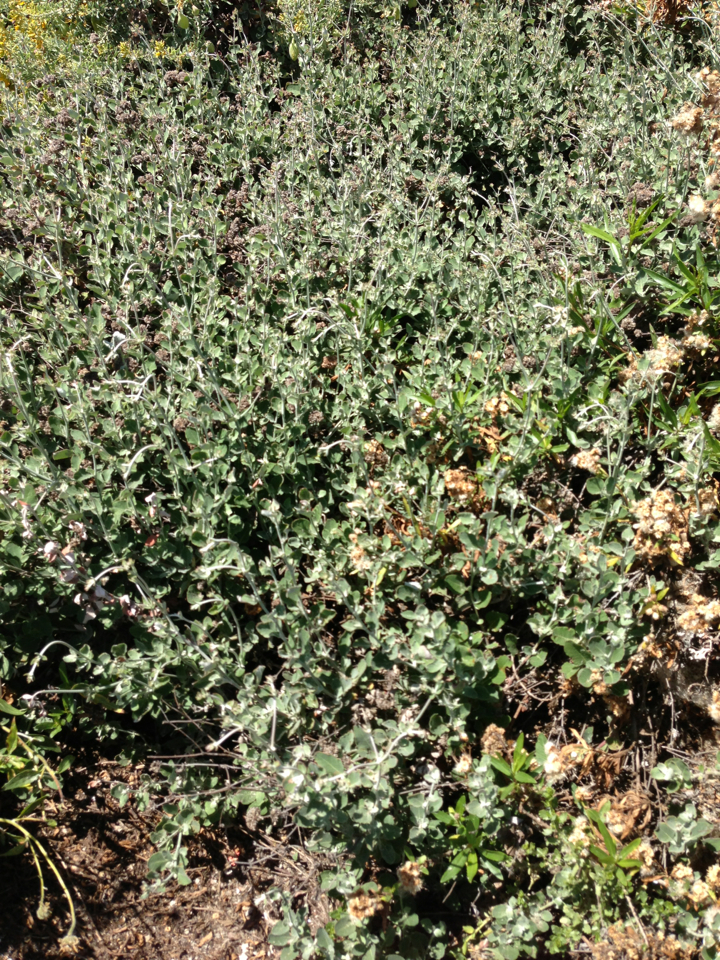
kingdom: Plantae
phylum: Tracheophyta
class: Magnoliopsida
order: Caryophyllales
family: Polygonaceae
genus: Eriogonum
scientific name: Eriogonum cinereum
